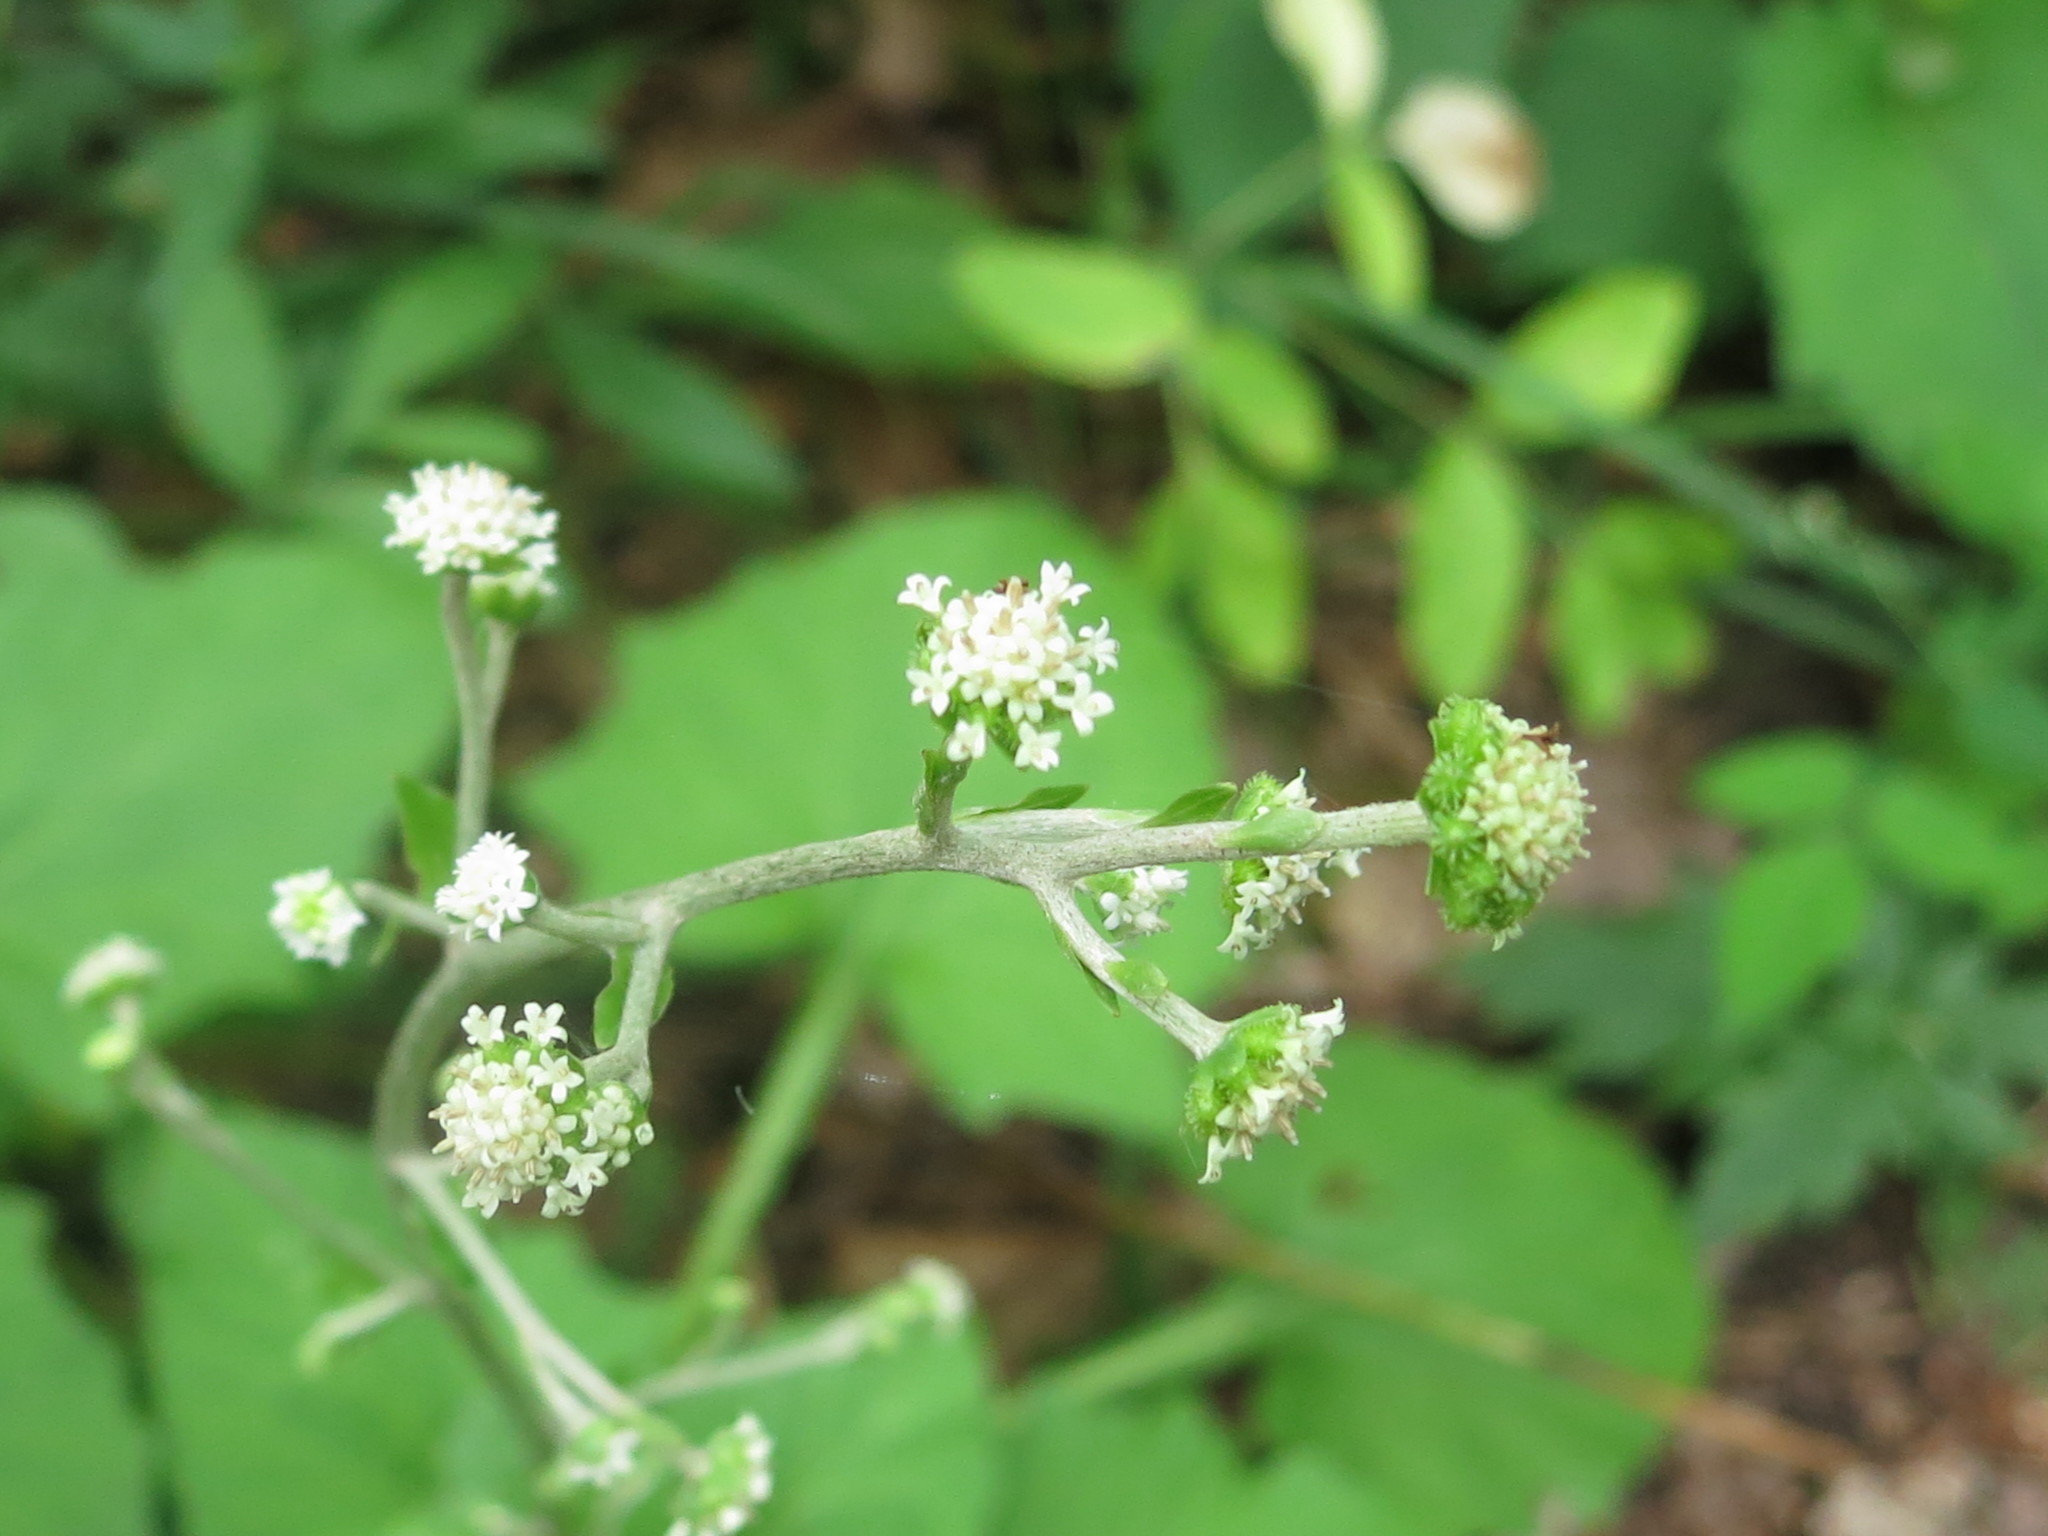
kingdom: Plantae
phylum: Tracheophyta
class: Magnoliopsida
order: Asterales
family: Asteraceae
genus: Adenocaulon
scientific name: Adenocaulon himalaicum
